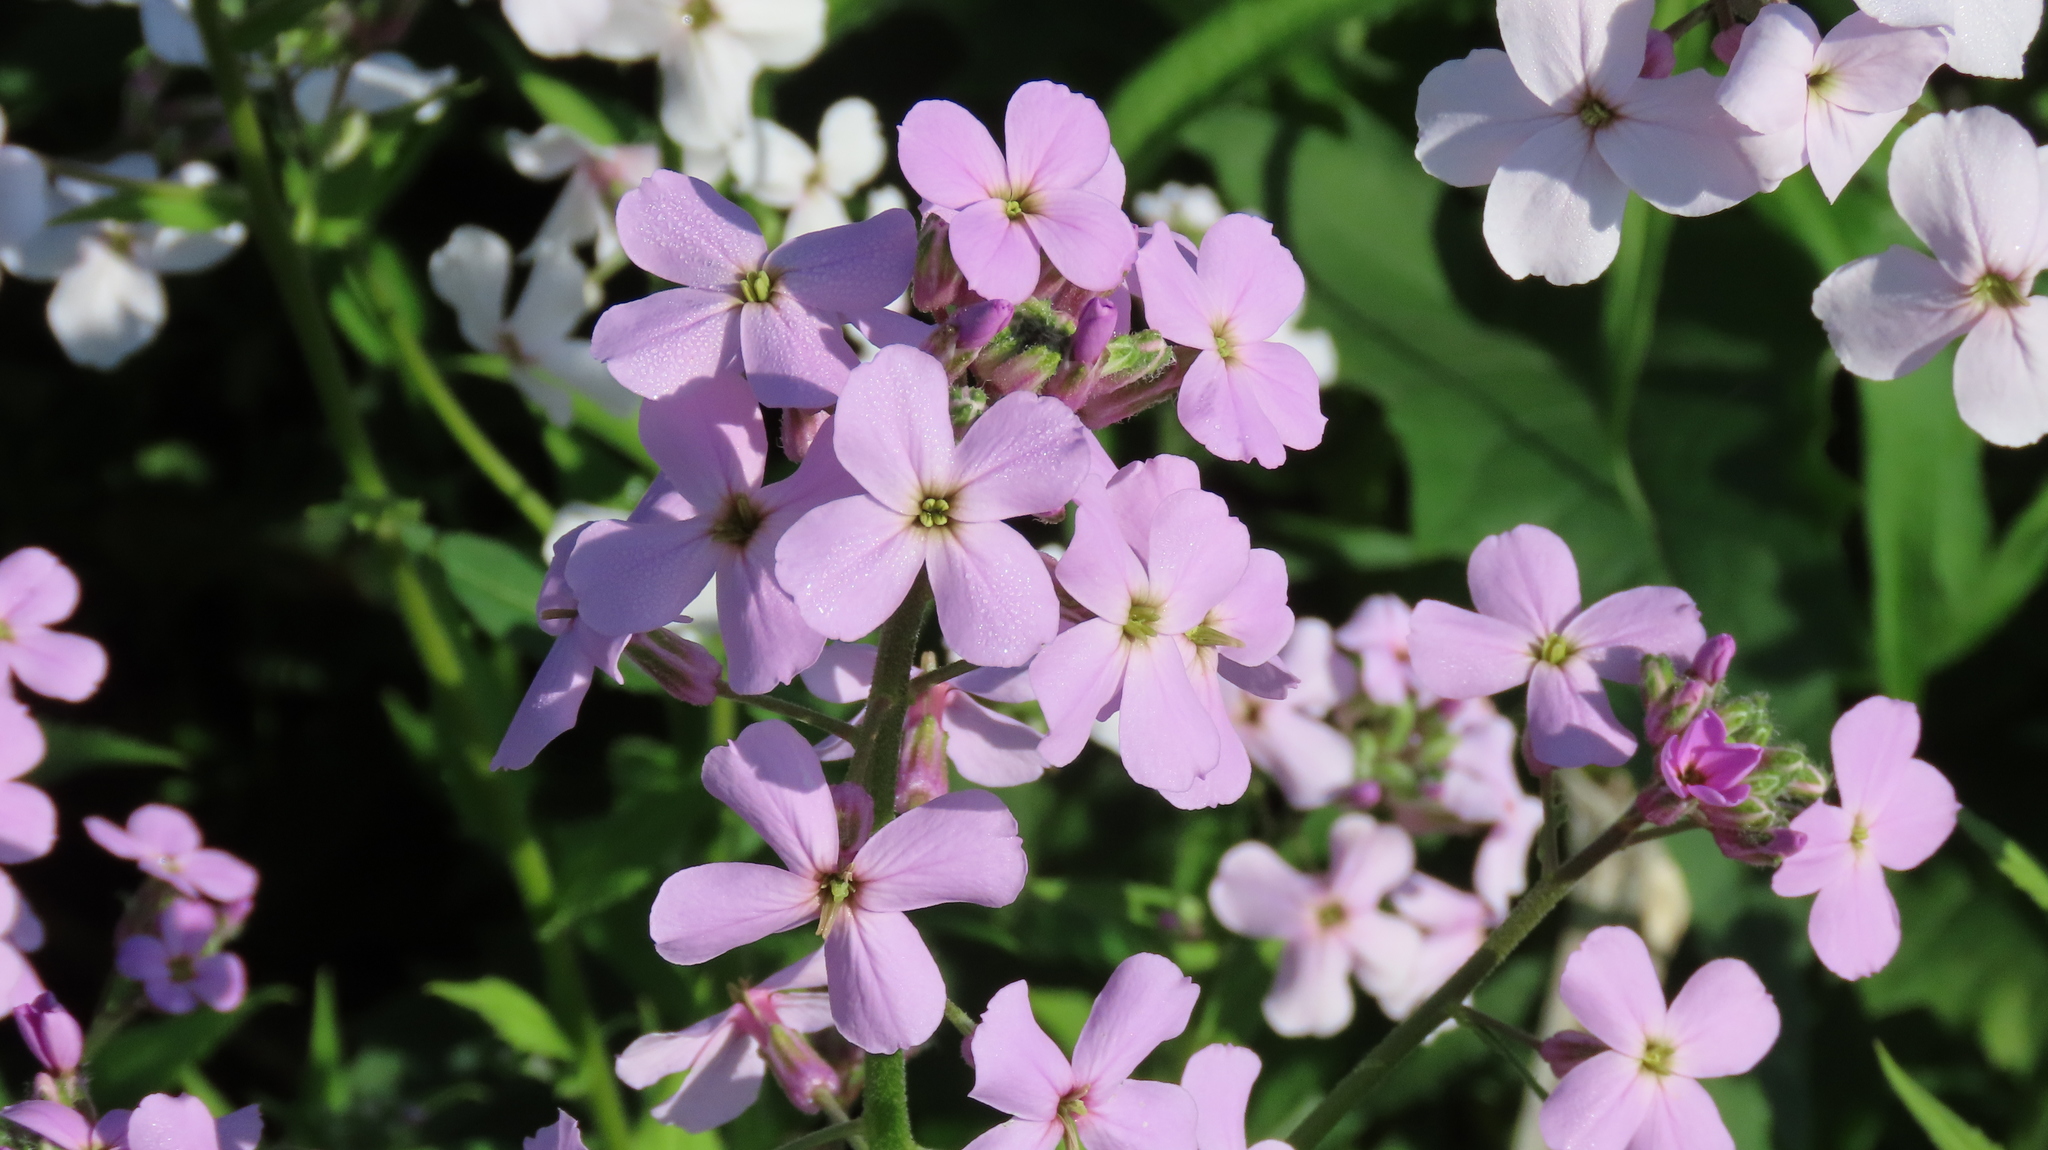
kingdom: Plantae
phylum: Tracheophyta
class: Magnoliopsida
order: Brassicales
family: Brassicaceae
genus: Hesperis
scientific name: Hesperis matronalis
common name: Dame's-violet
